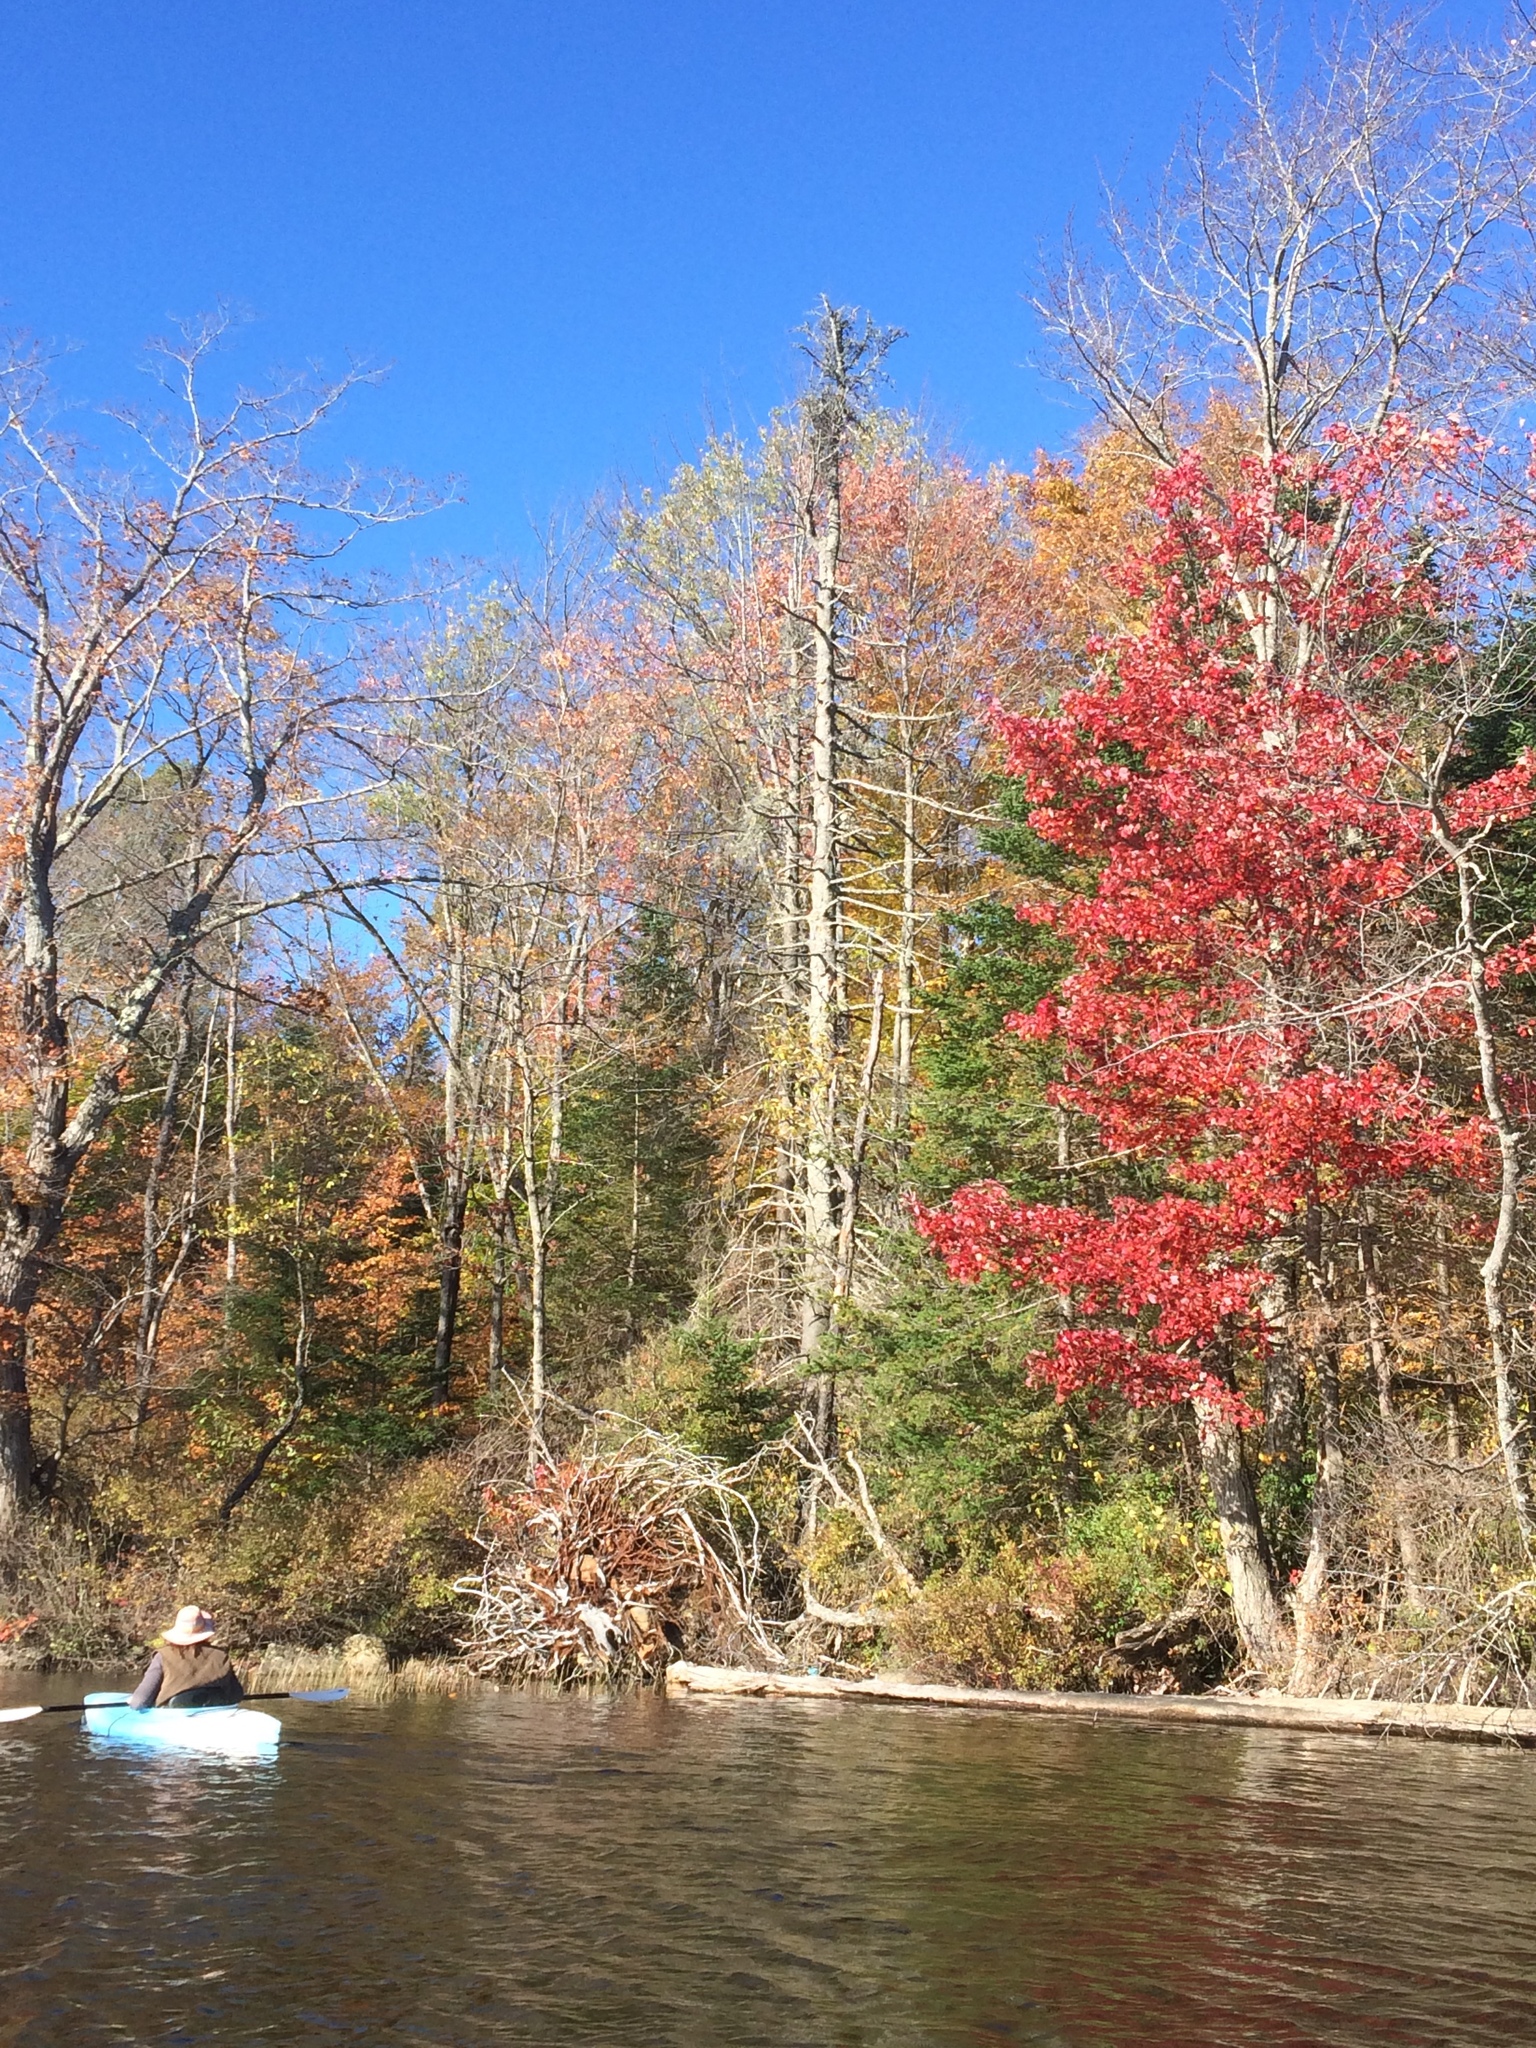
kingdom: Plantae
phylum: Tracheophyta
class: Magnoliopsida
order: Sapindales
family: Sapindaceae
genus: Acer
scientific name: Acer rubrum
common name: Red maple
